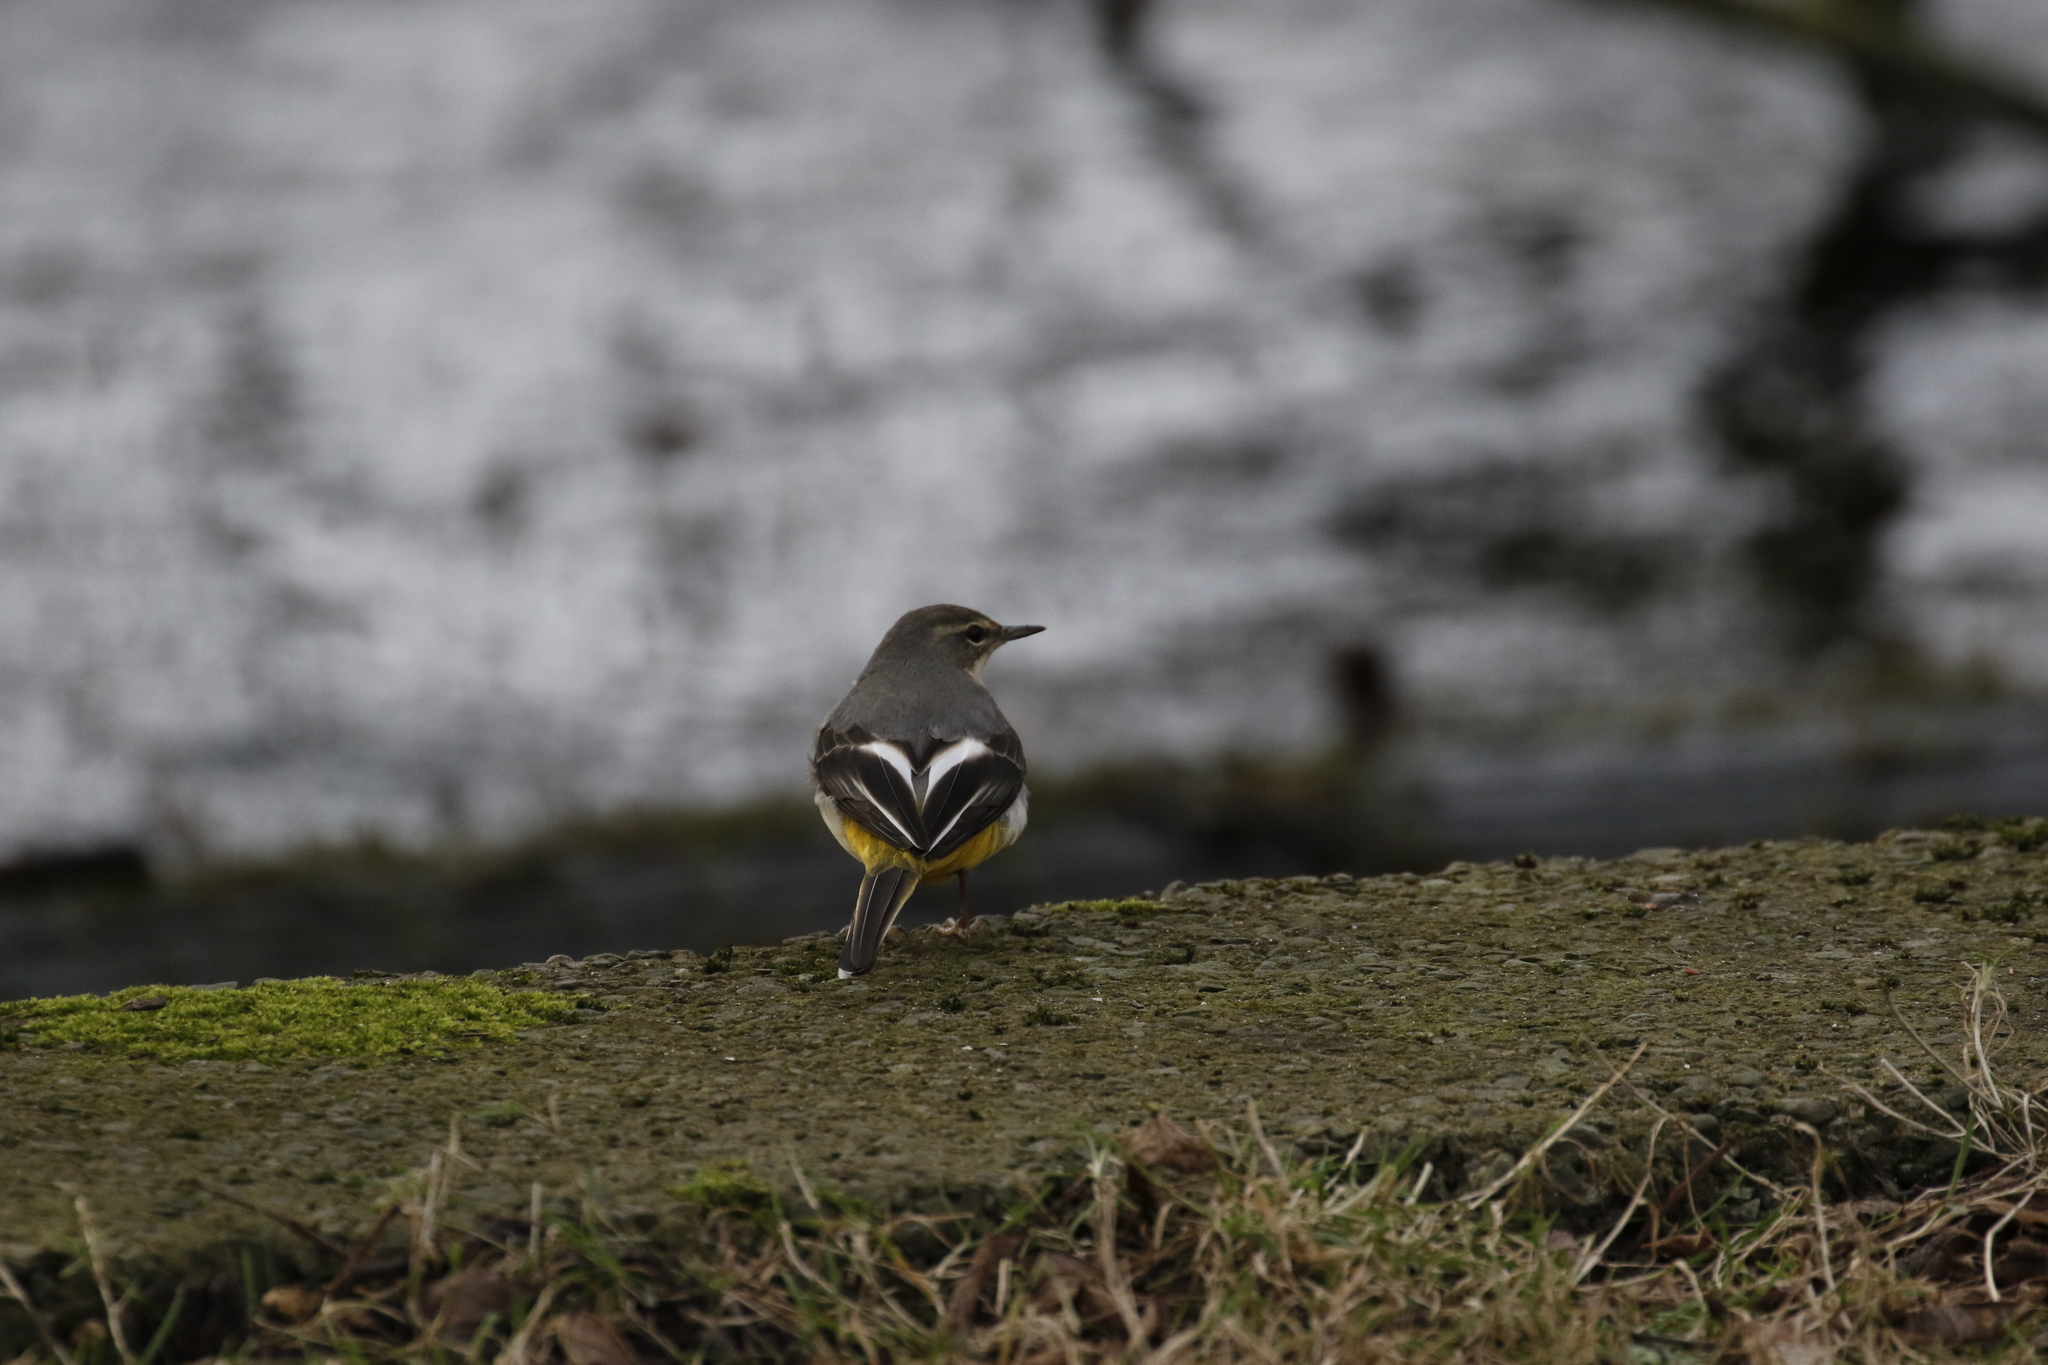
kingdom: Animalia
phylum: Chordata
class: Aves
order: Passeriformes
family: Motacillidae
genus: Motacilla
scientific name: Motacilla cinerea
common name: Grey wagtail
